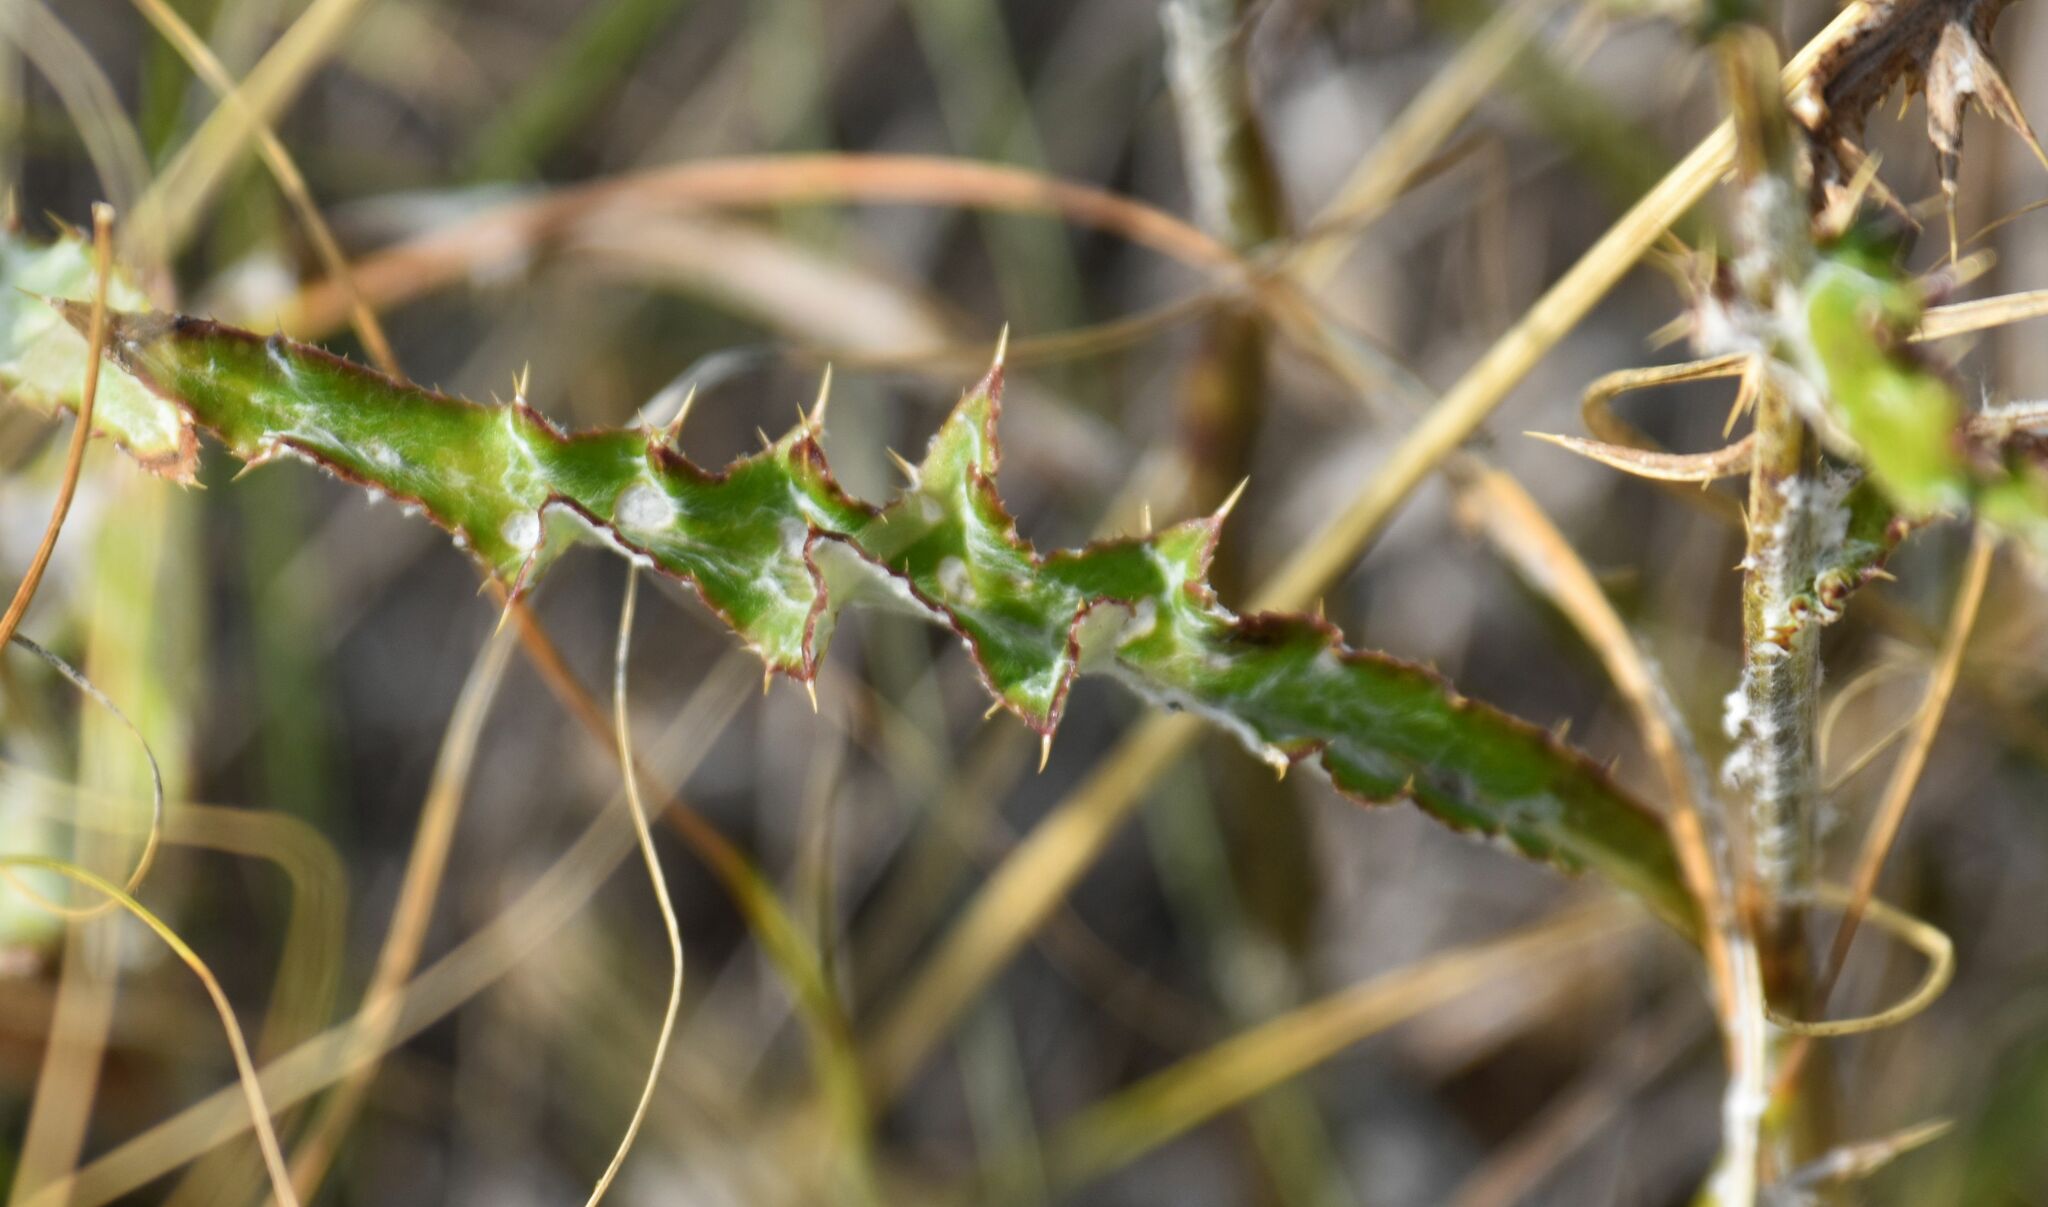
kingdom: Plantae
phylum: Tracheophyta
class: Magnoliopsida
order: Asterales
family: Asteraceae
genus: Cirsium
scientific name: Cirsium flodmanii
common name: Flodman's thistle
